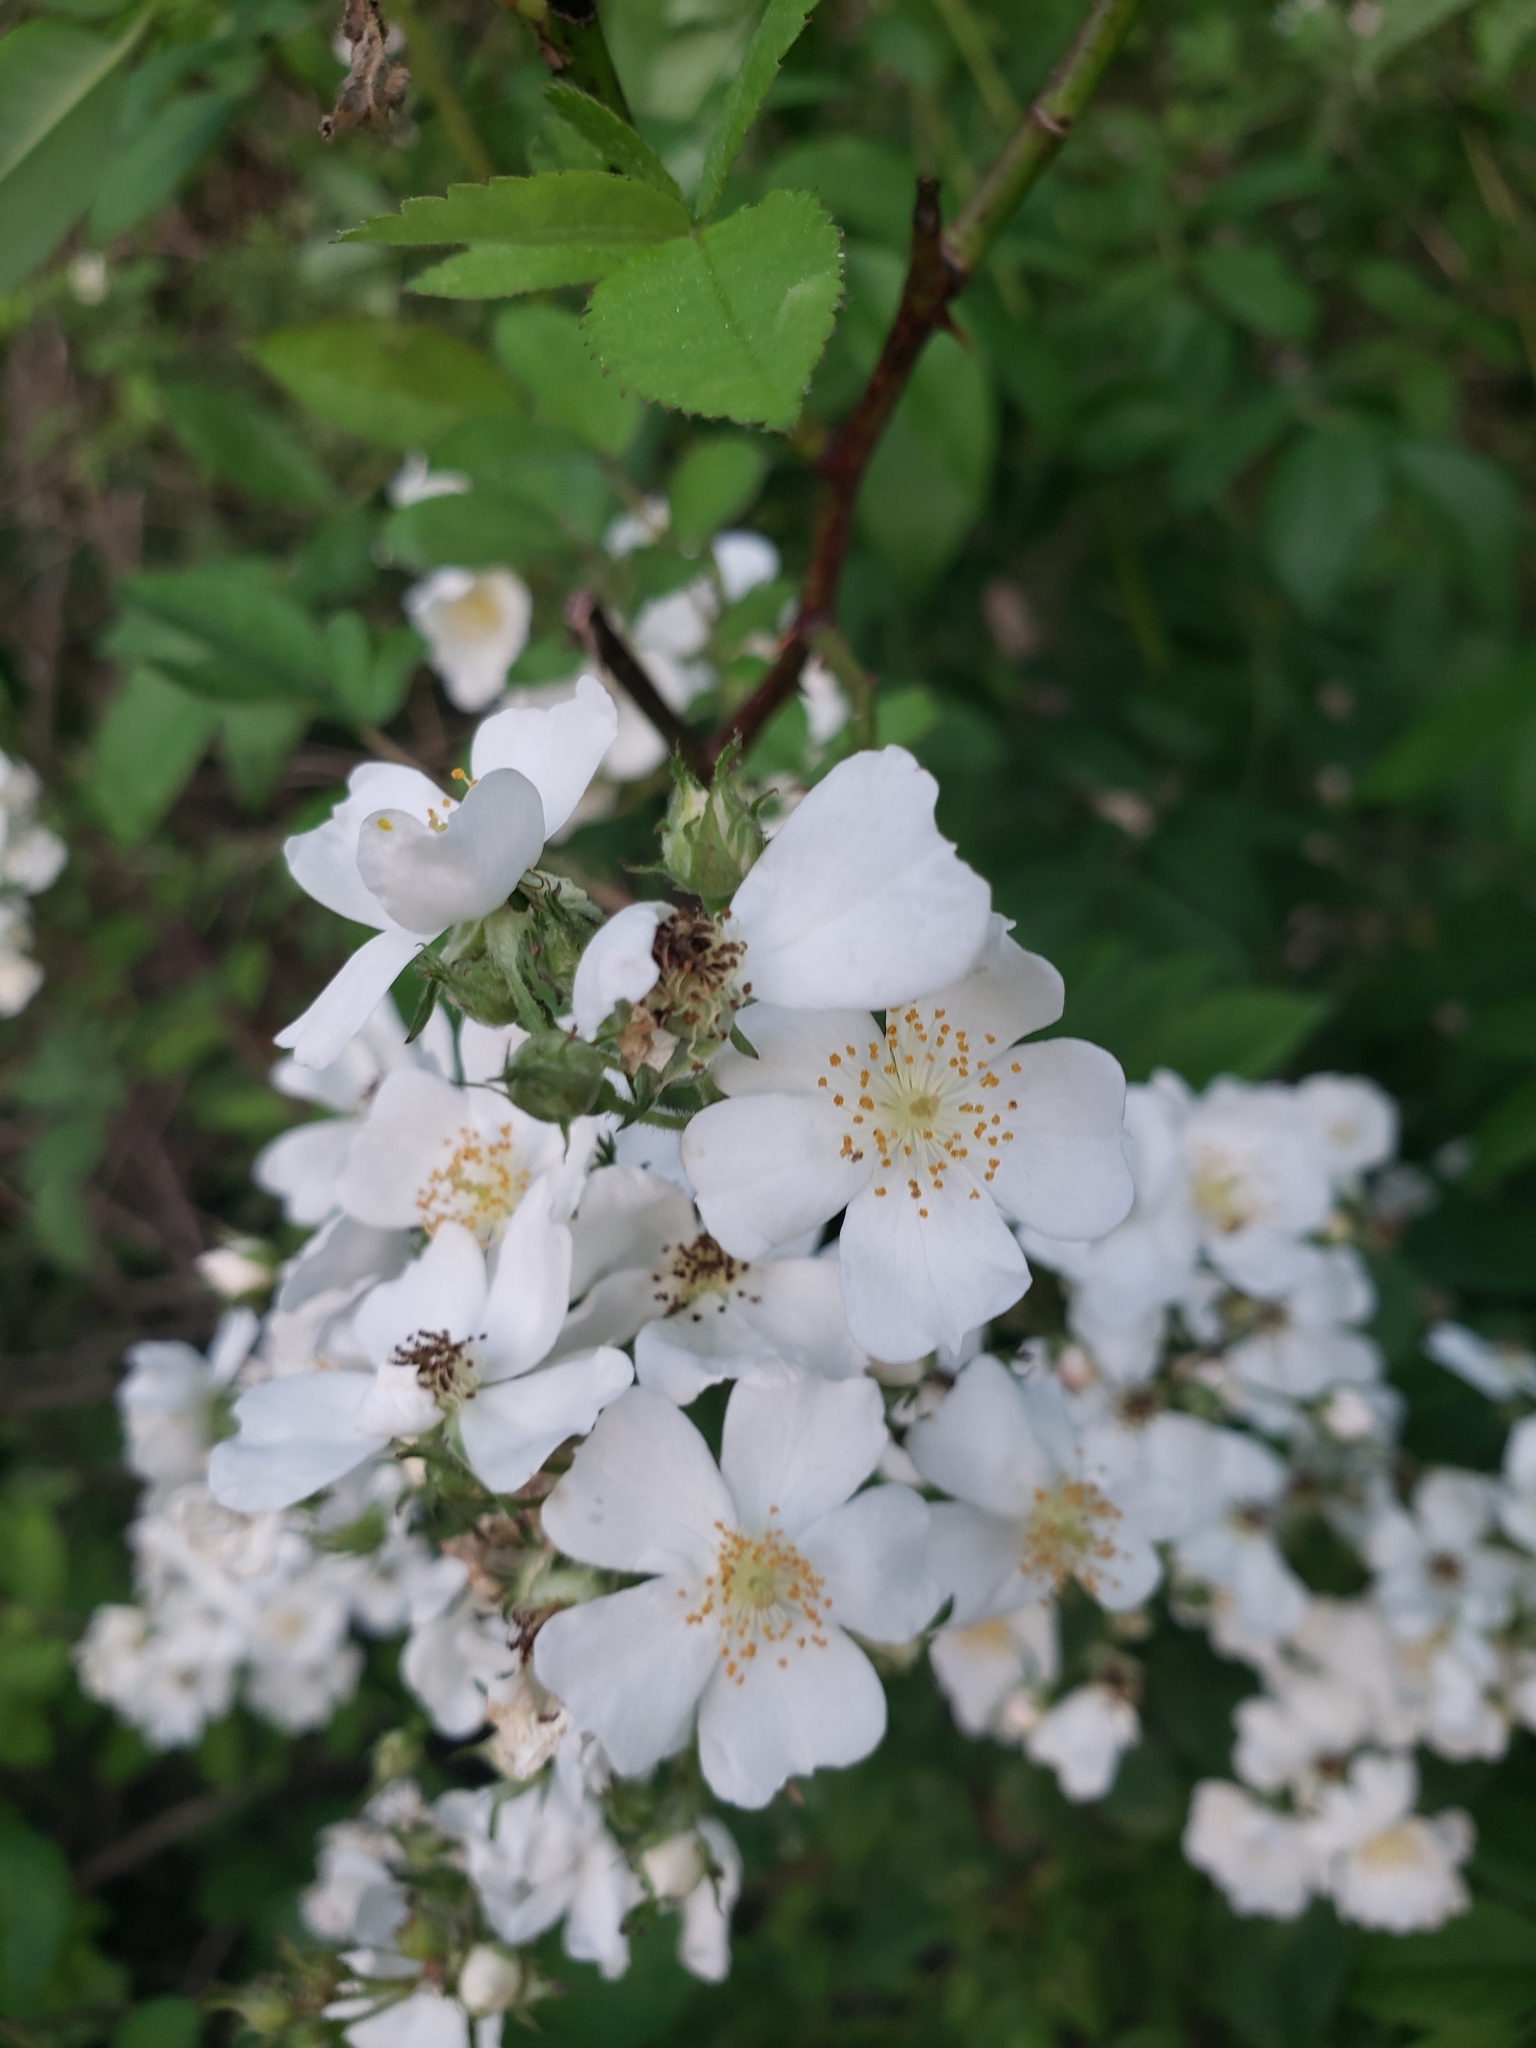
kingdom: Plantae
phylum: Tracheophyta
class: Magnoliopsida
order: Rosales
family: Rosaceae
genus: Rosa
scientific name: Rosa multiflora
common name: Multiflora rose
